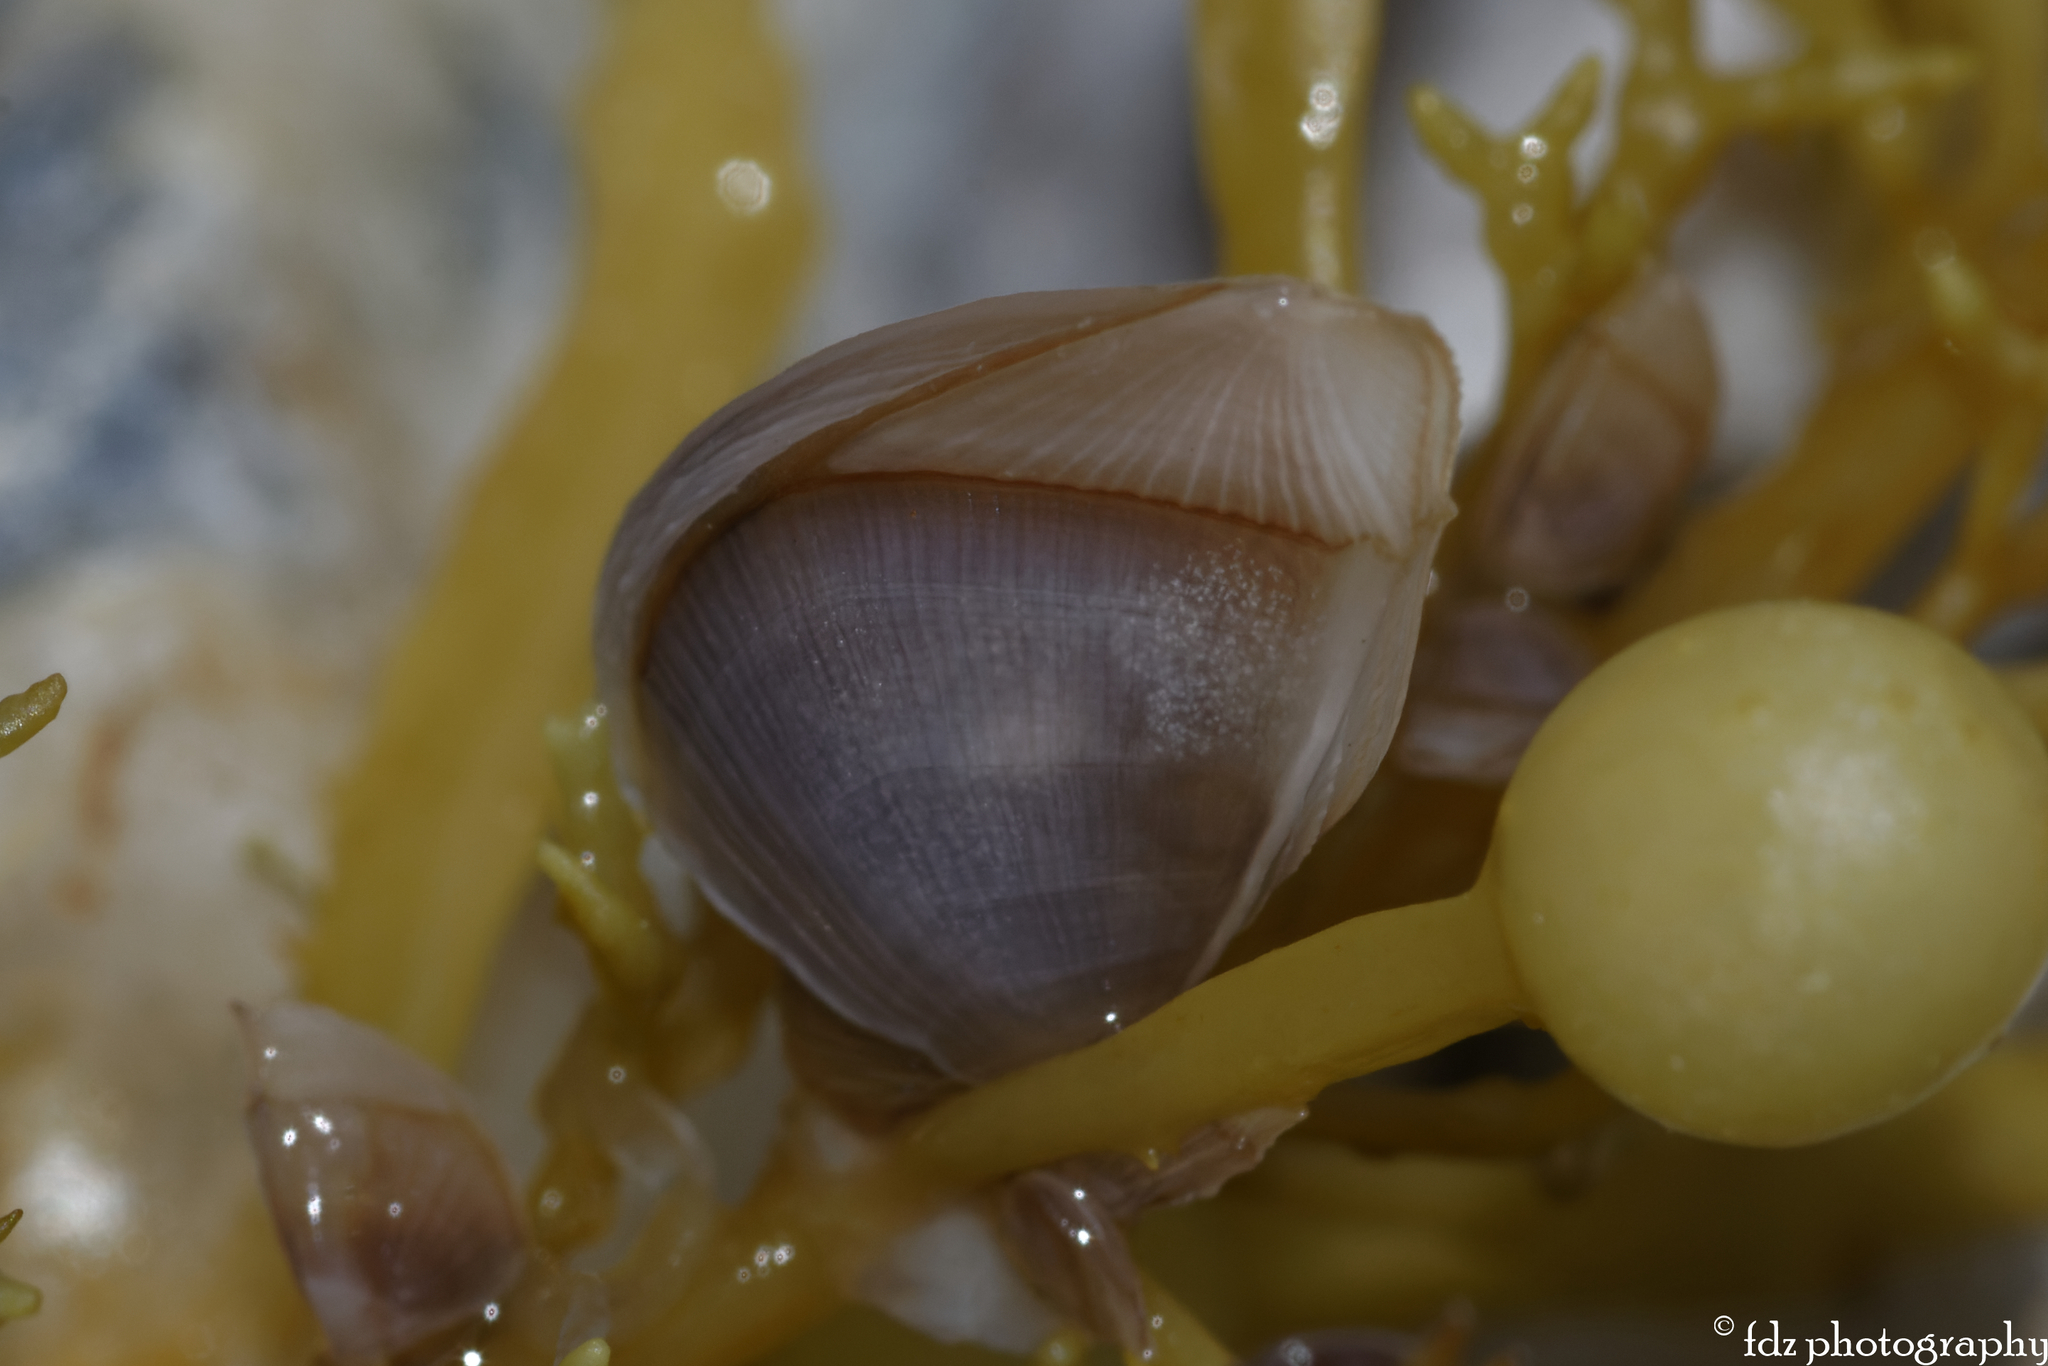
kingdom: Animalia
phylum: Arthropoda
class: Maxillopoda
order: Pedunculata
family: Lepadidae
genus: Lepas
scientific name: Lepas pectinata
